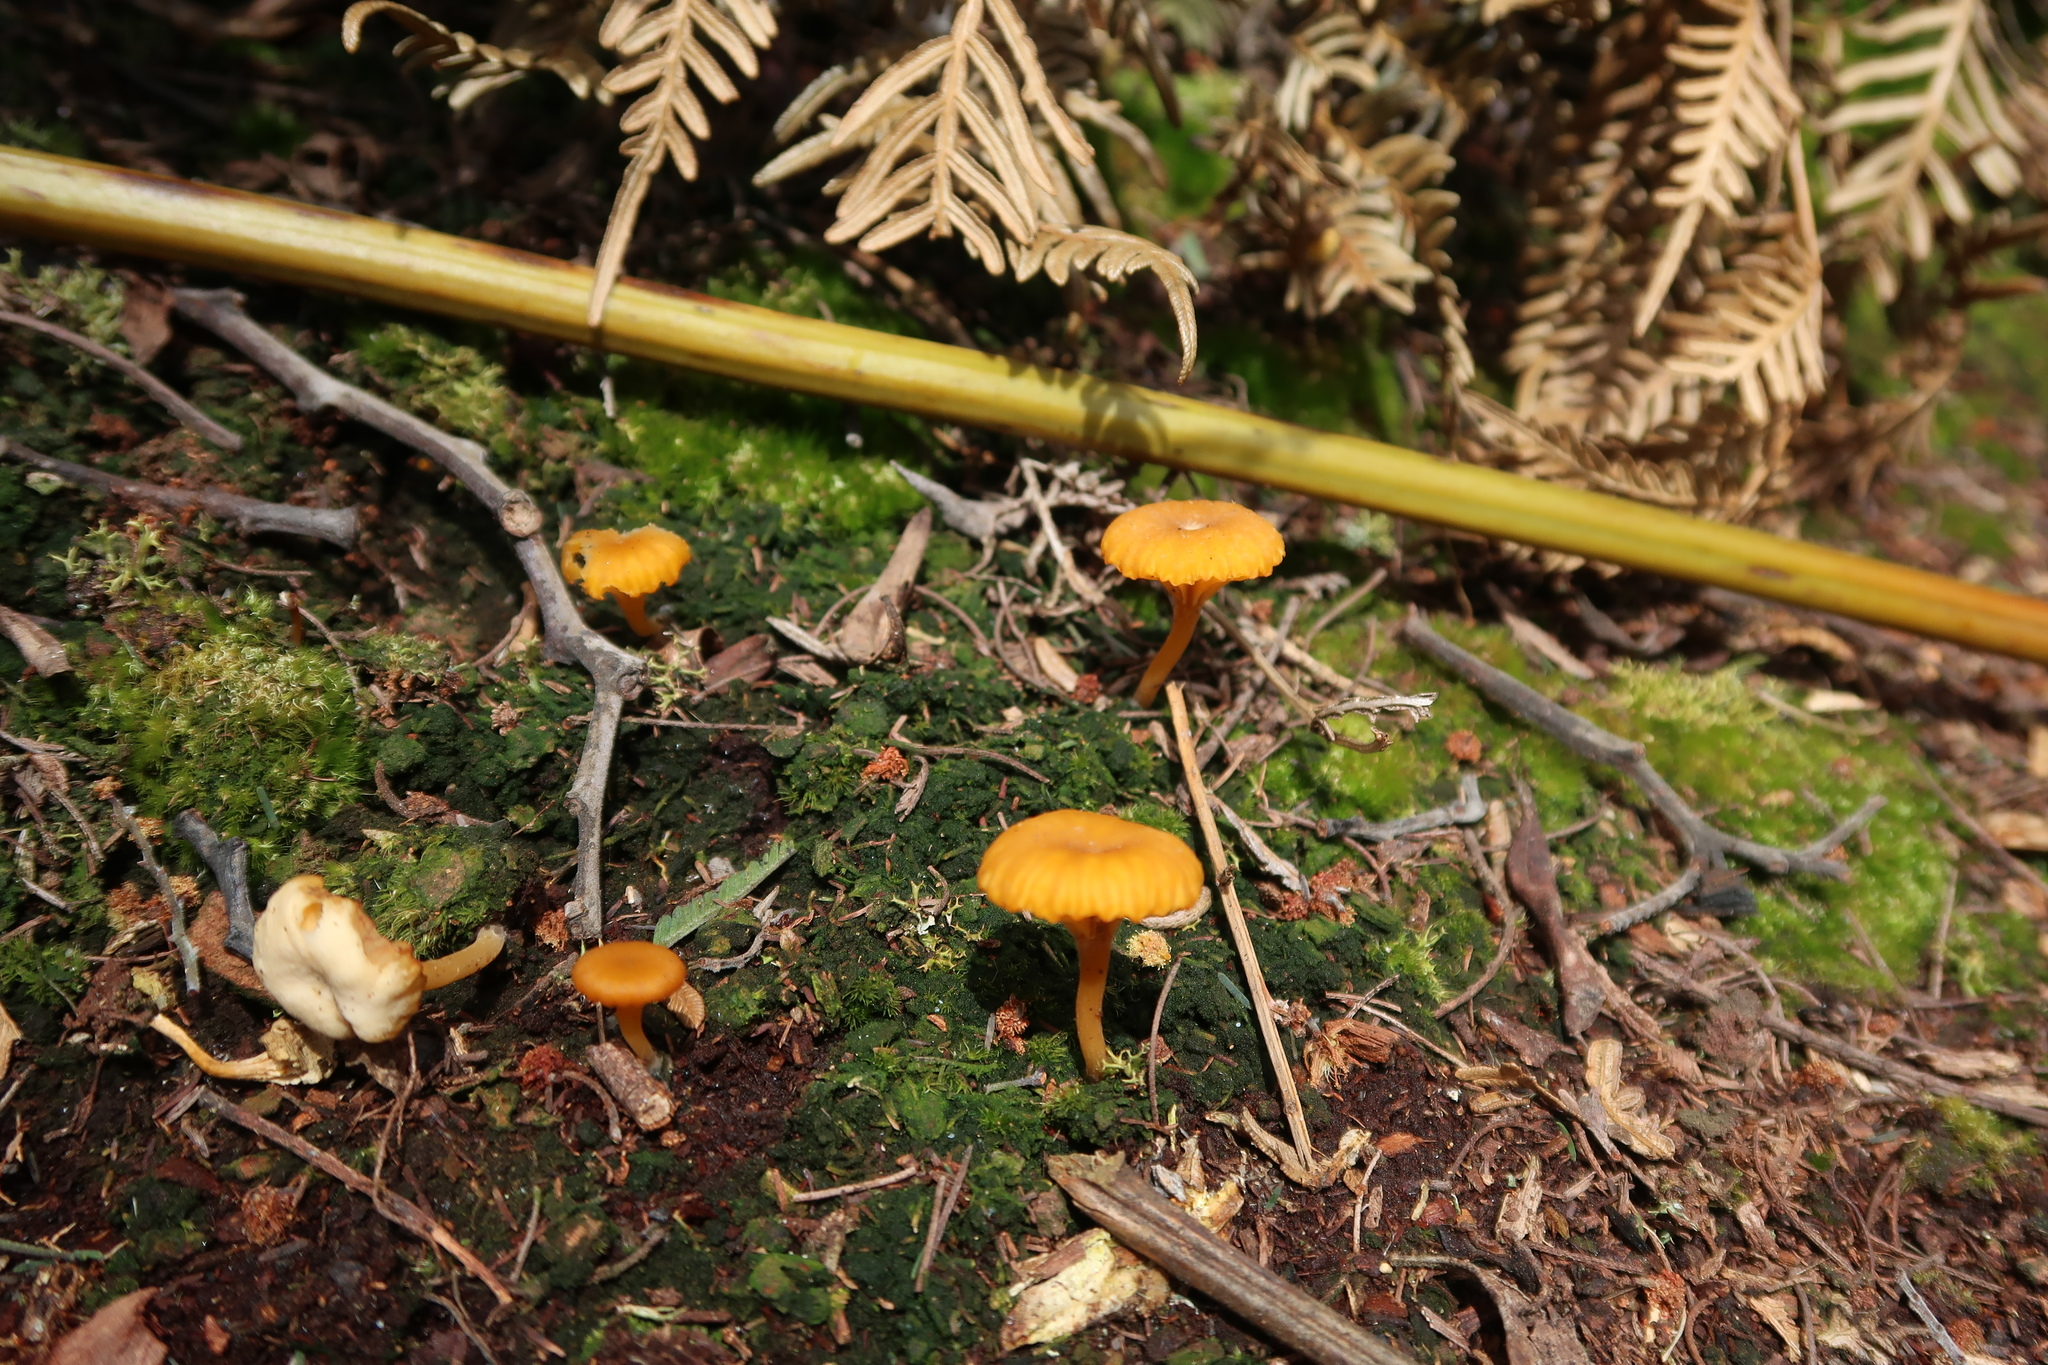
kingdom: Fungi
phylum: Basidiomycota
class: Agaricomycetes
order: Agaricales
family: Hygrophoraceae
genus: Lichenomphalia
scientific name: Lichenomphalia chromacea
